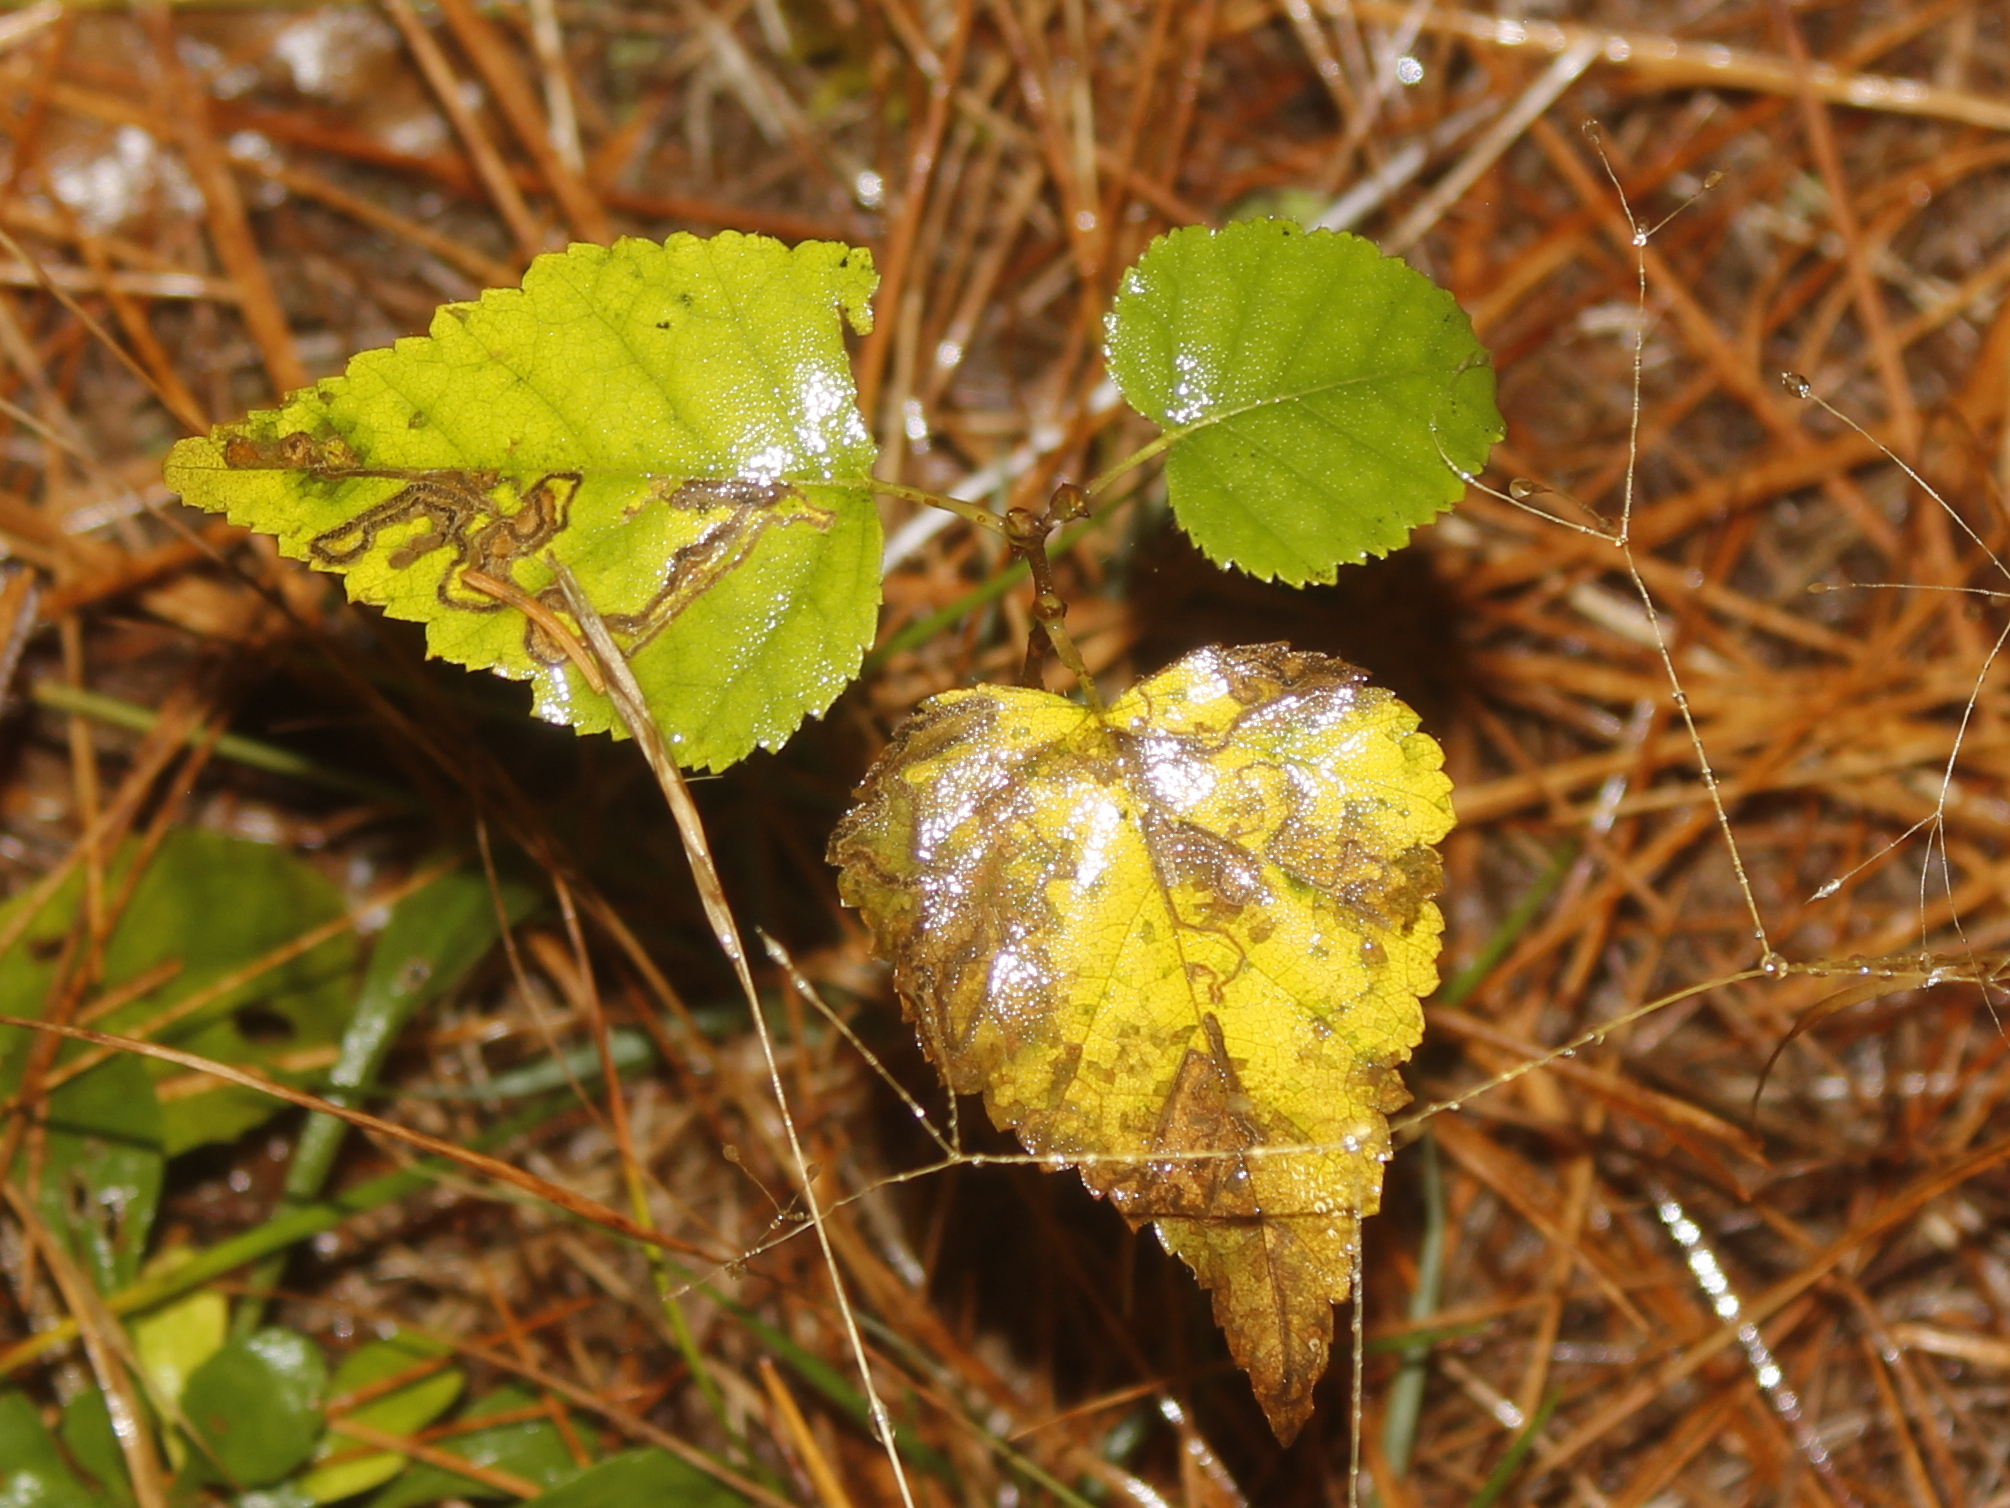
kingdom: Animalia
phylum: Arthropoda
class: Insecta
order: Lepidoptera
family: Nepticulidae
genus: Stigmella
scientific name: Stigmella betulicola
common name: Common birch pigmy
